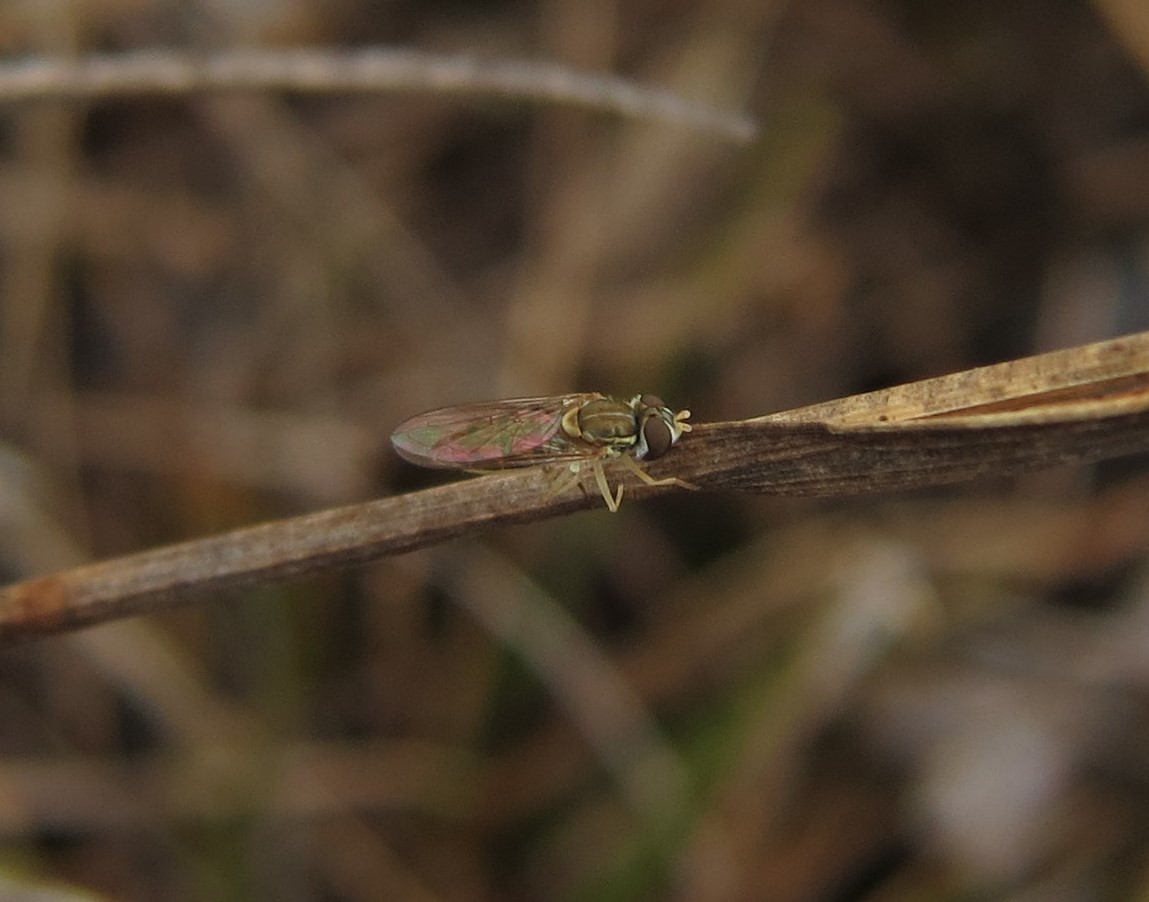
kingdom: Animalia
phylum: Arthropoda
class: Insecta
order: Diptera
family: Syrphidae
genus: Toxomerus
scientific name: Toxomerus marginatus
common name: Syrphid fly
